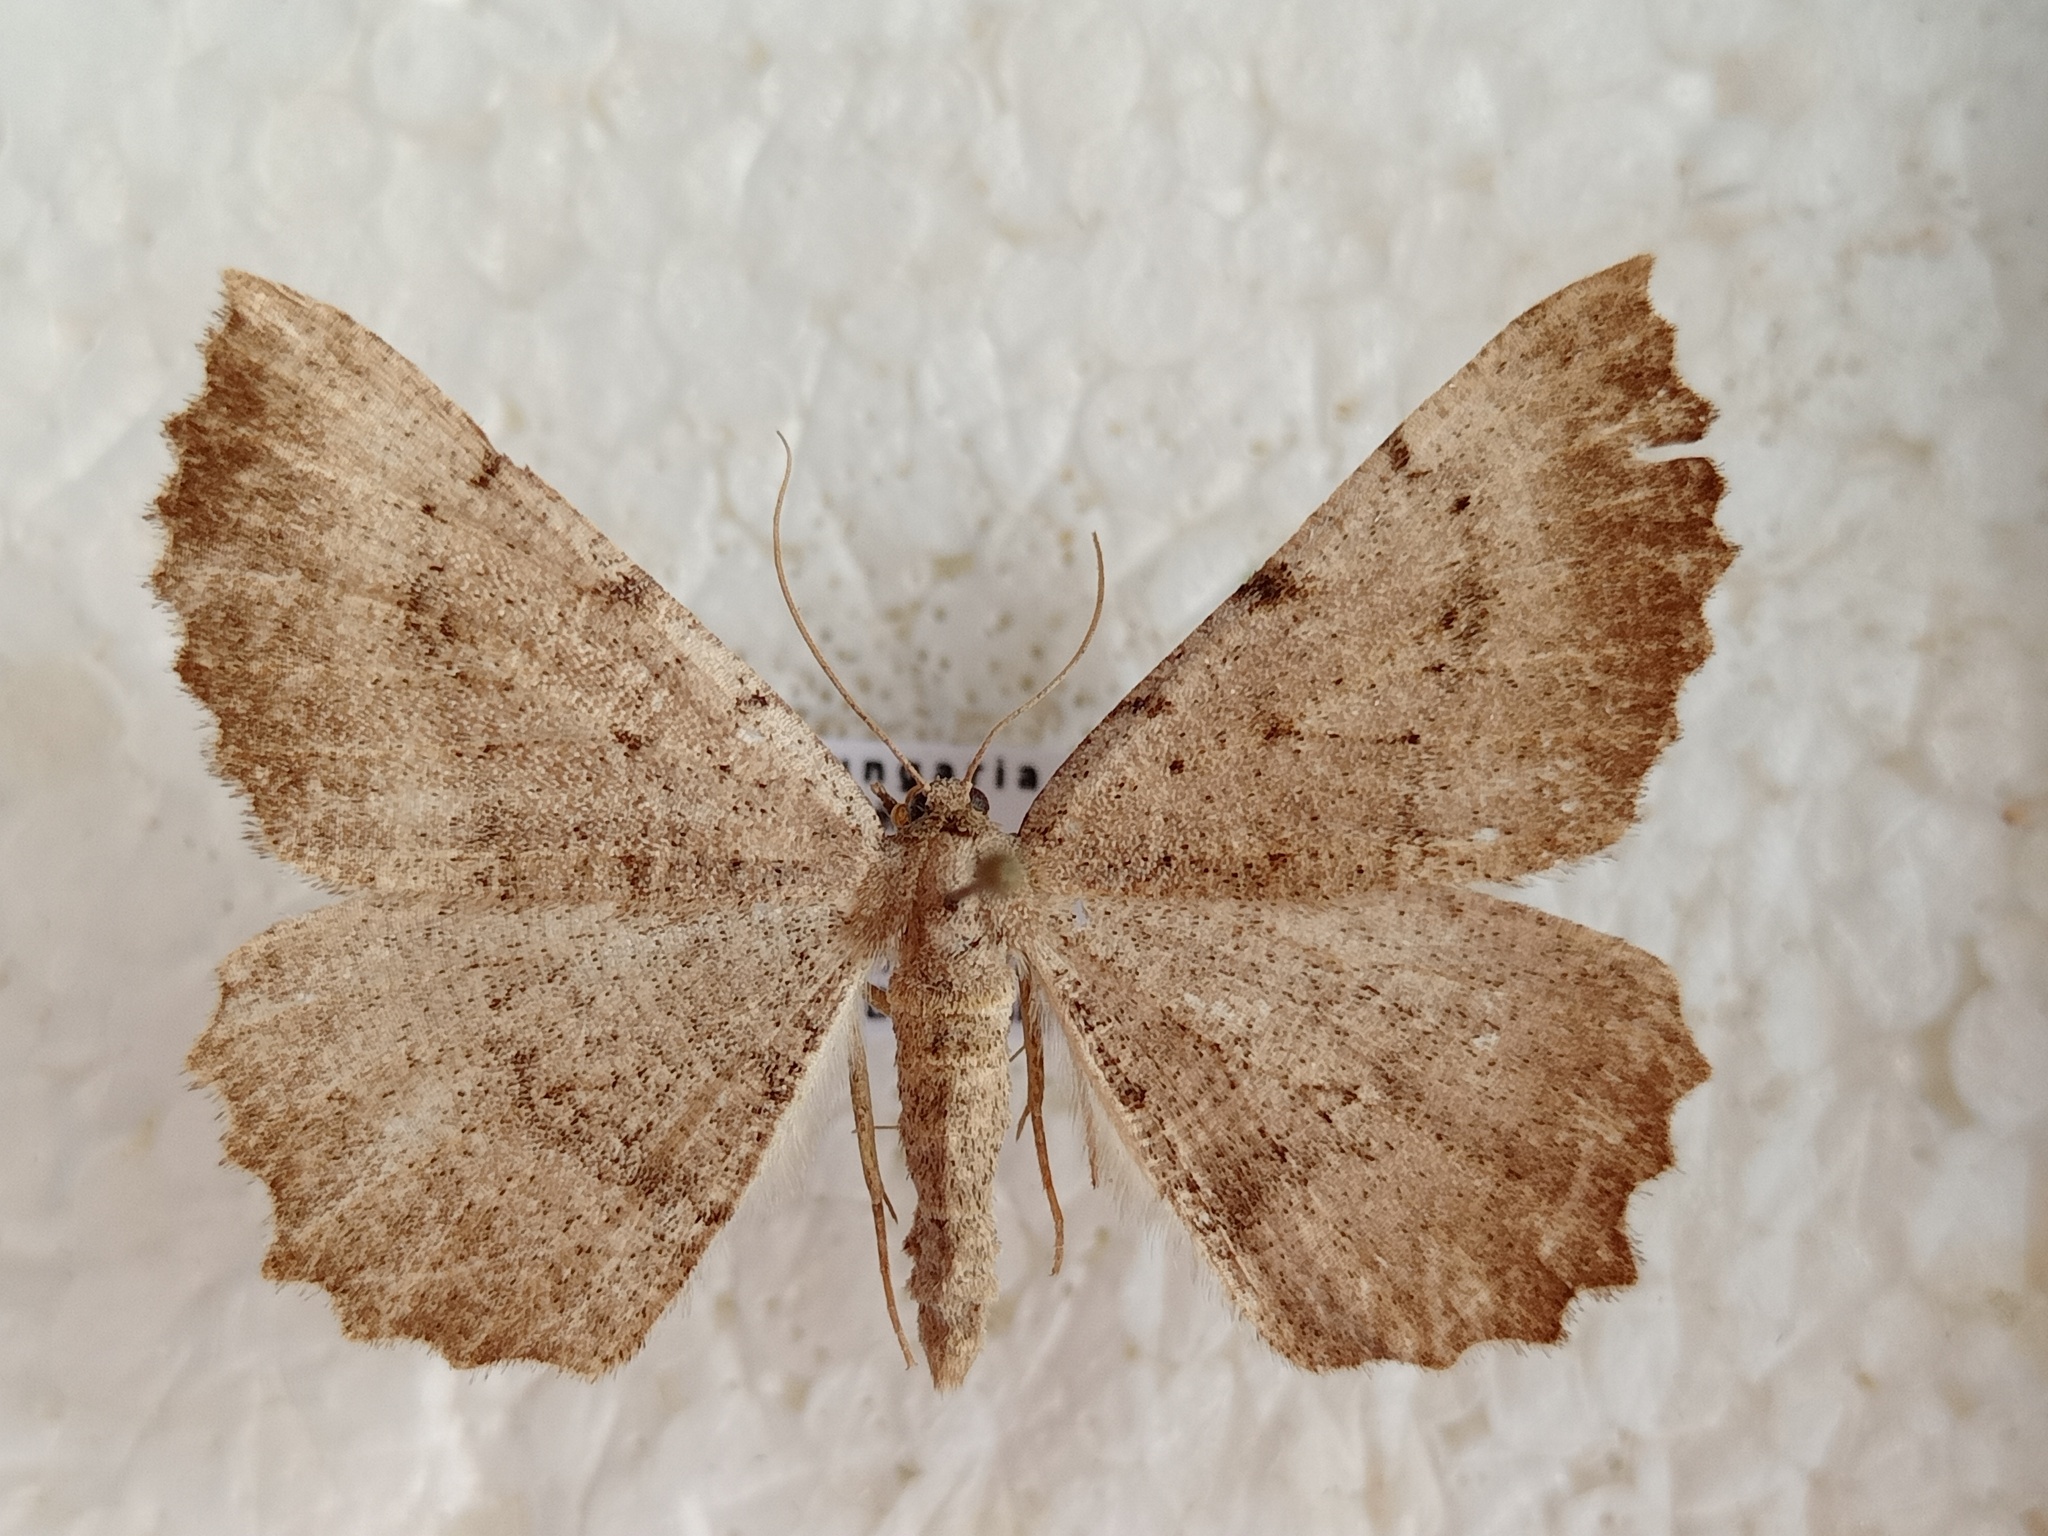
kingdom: Animalia
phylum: Arthropoda
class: Insecta
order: Lepidoptera
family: Geometridae
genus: Odontognophos
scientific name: Odontognophos dumetata
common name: Irish annulet
